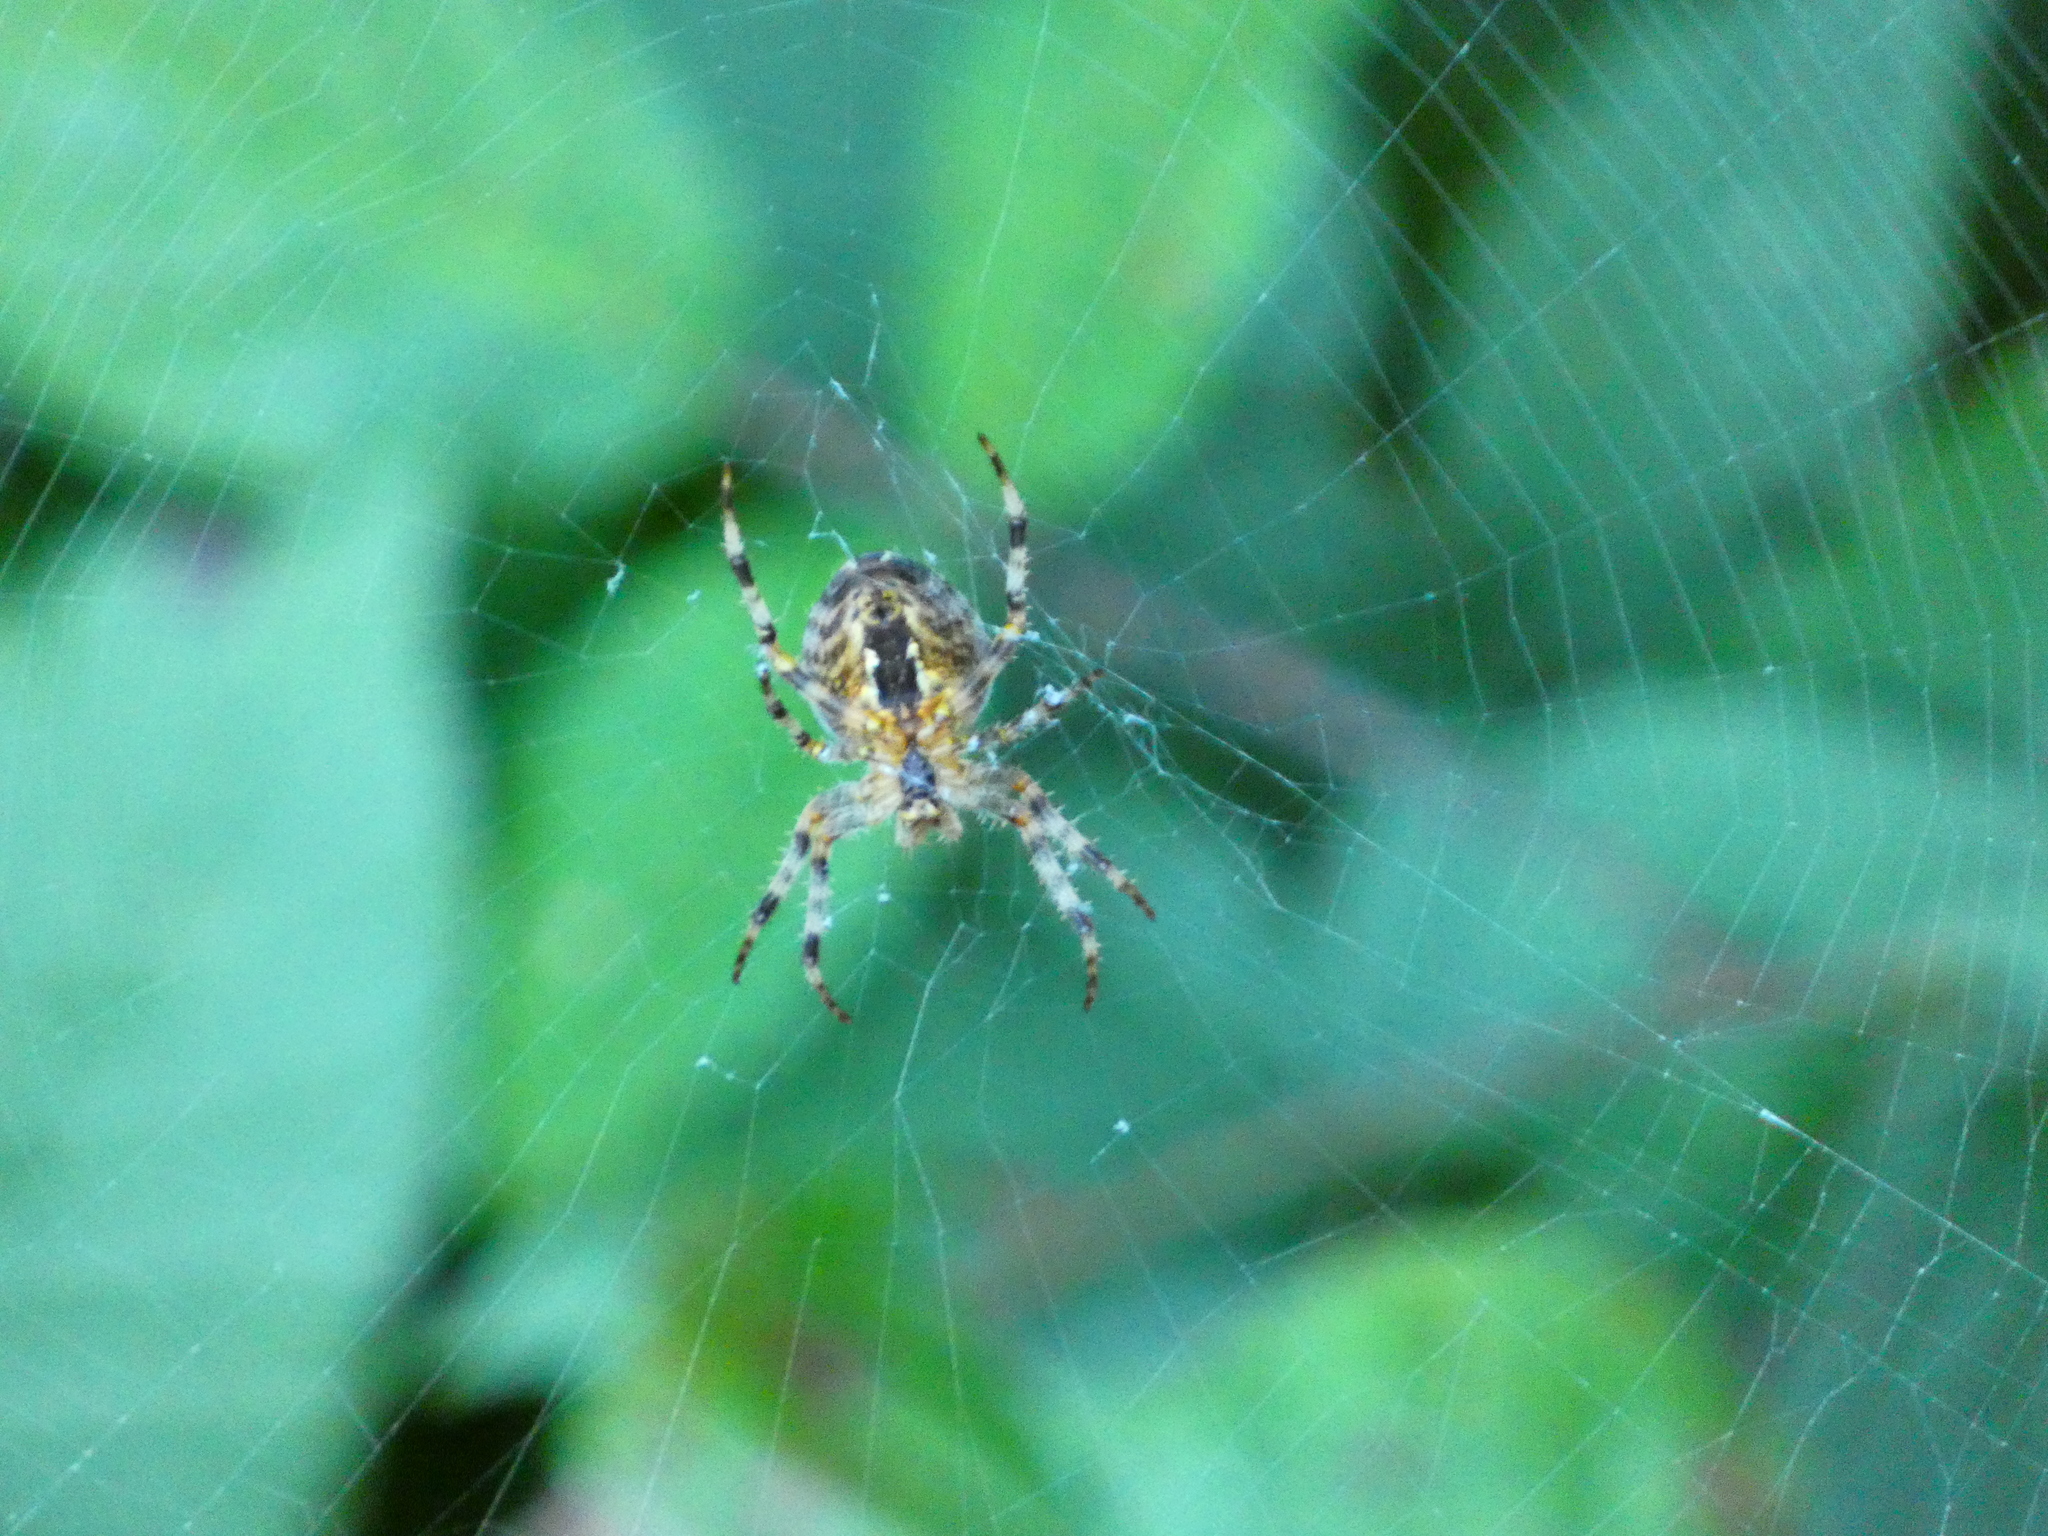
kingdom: Animalia
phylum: Arthropoda
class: Arachnida
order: Araneae
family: Araneidae
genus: Araneus
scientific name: Araneus diadematus
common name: Cross orbweaver
